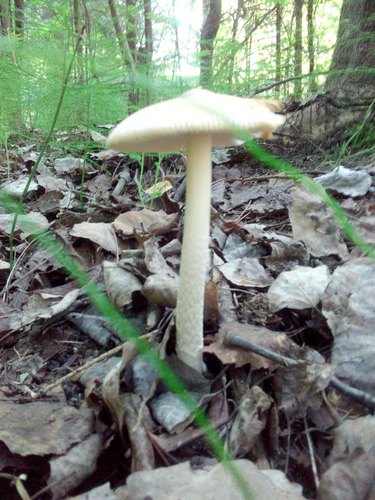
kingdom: Fungi
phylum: Basidiomycota
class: Agaricomycetes
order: Agaricales
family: Amanitaceae
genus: Amanita
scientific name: Amanita crocea
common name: Orange grisette
